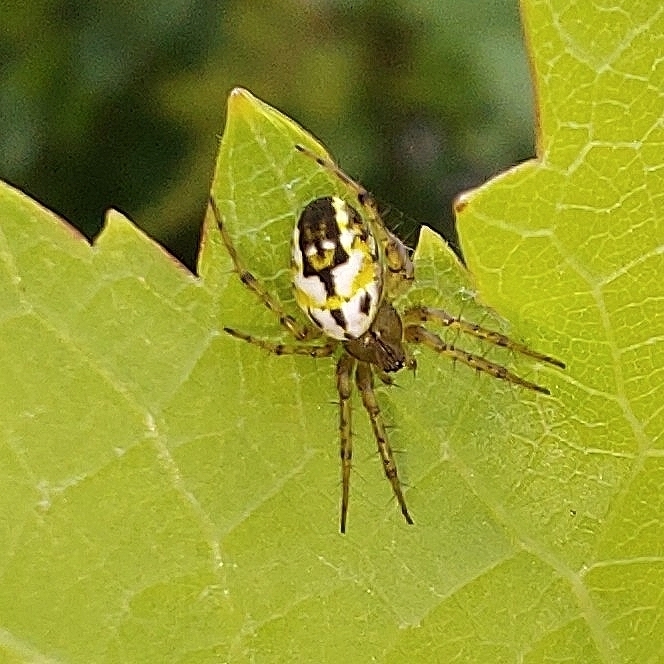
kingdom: Animalia
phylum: Arthropoda
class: Arachnida
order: Araneae
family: Araneidae
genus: Mangora
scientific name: Mangora acalypha
